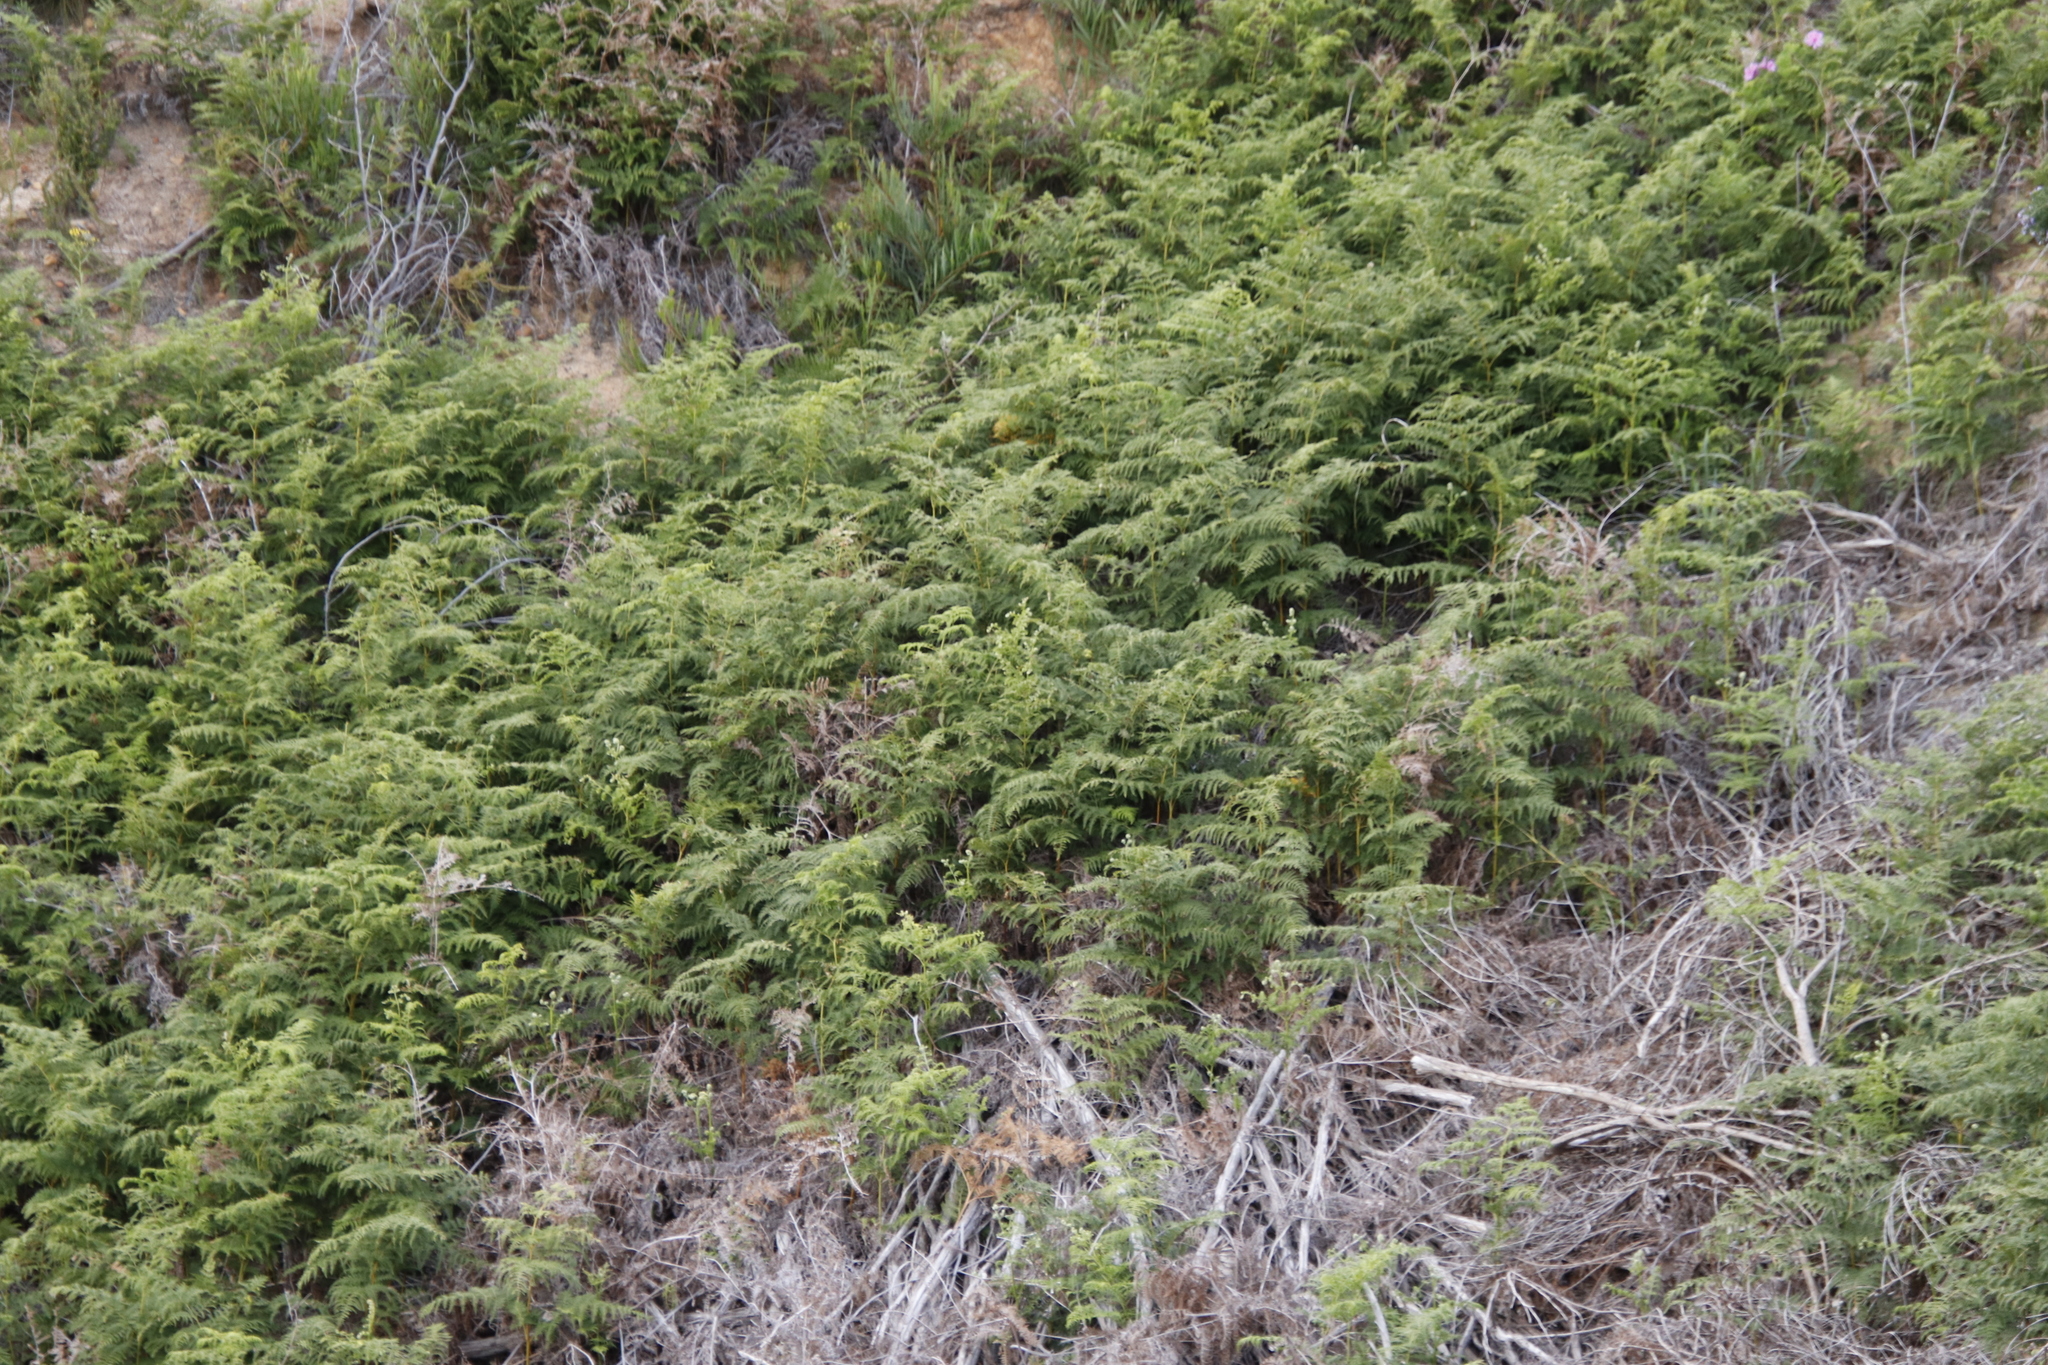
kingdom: Plantae
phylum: Tracheophyta
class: Polypodiopsida
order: Polypodiales
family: Dennstaedtiaceae
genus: Pteridium
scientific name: Pteridium aquilinum
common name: Bracken
